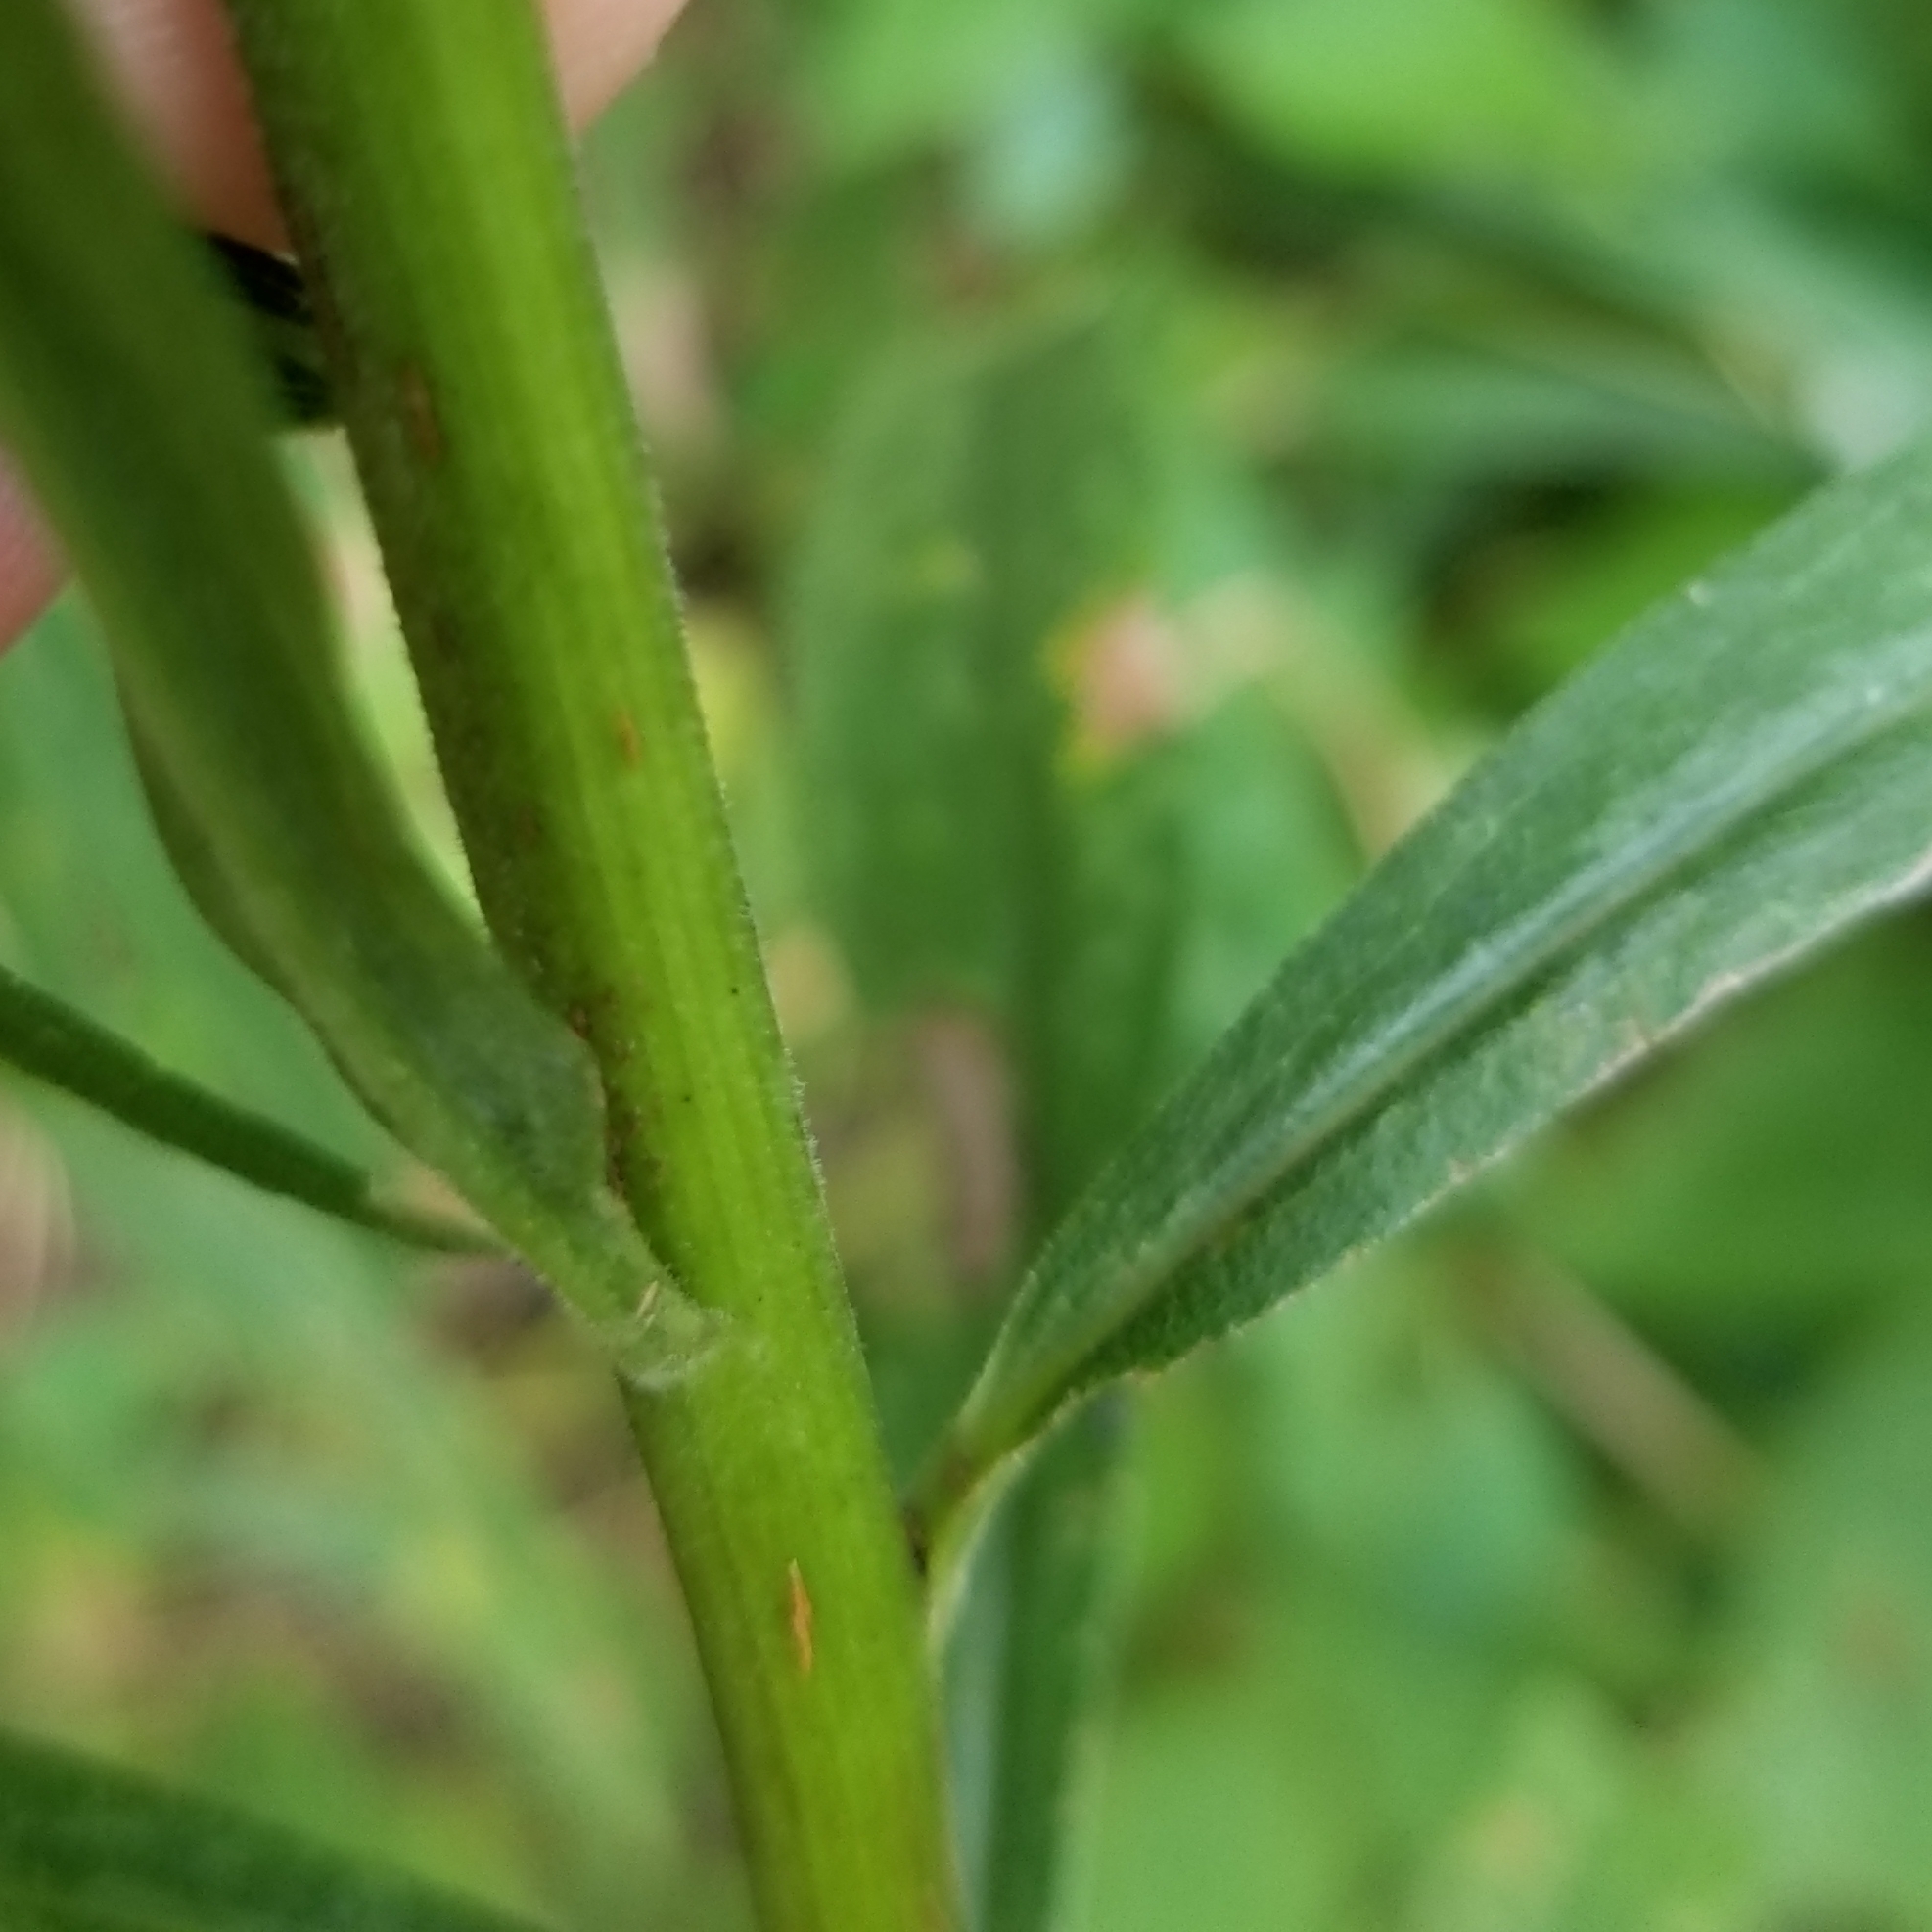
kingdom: Plantae
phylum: Tracheophyta
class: Magnoliopsida
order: Asterales
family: Asteraceae
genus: Solidago
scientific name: Solidago altissima
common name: Late goldenrod
